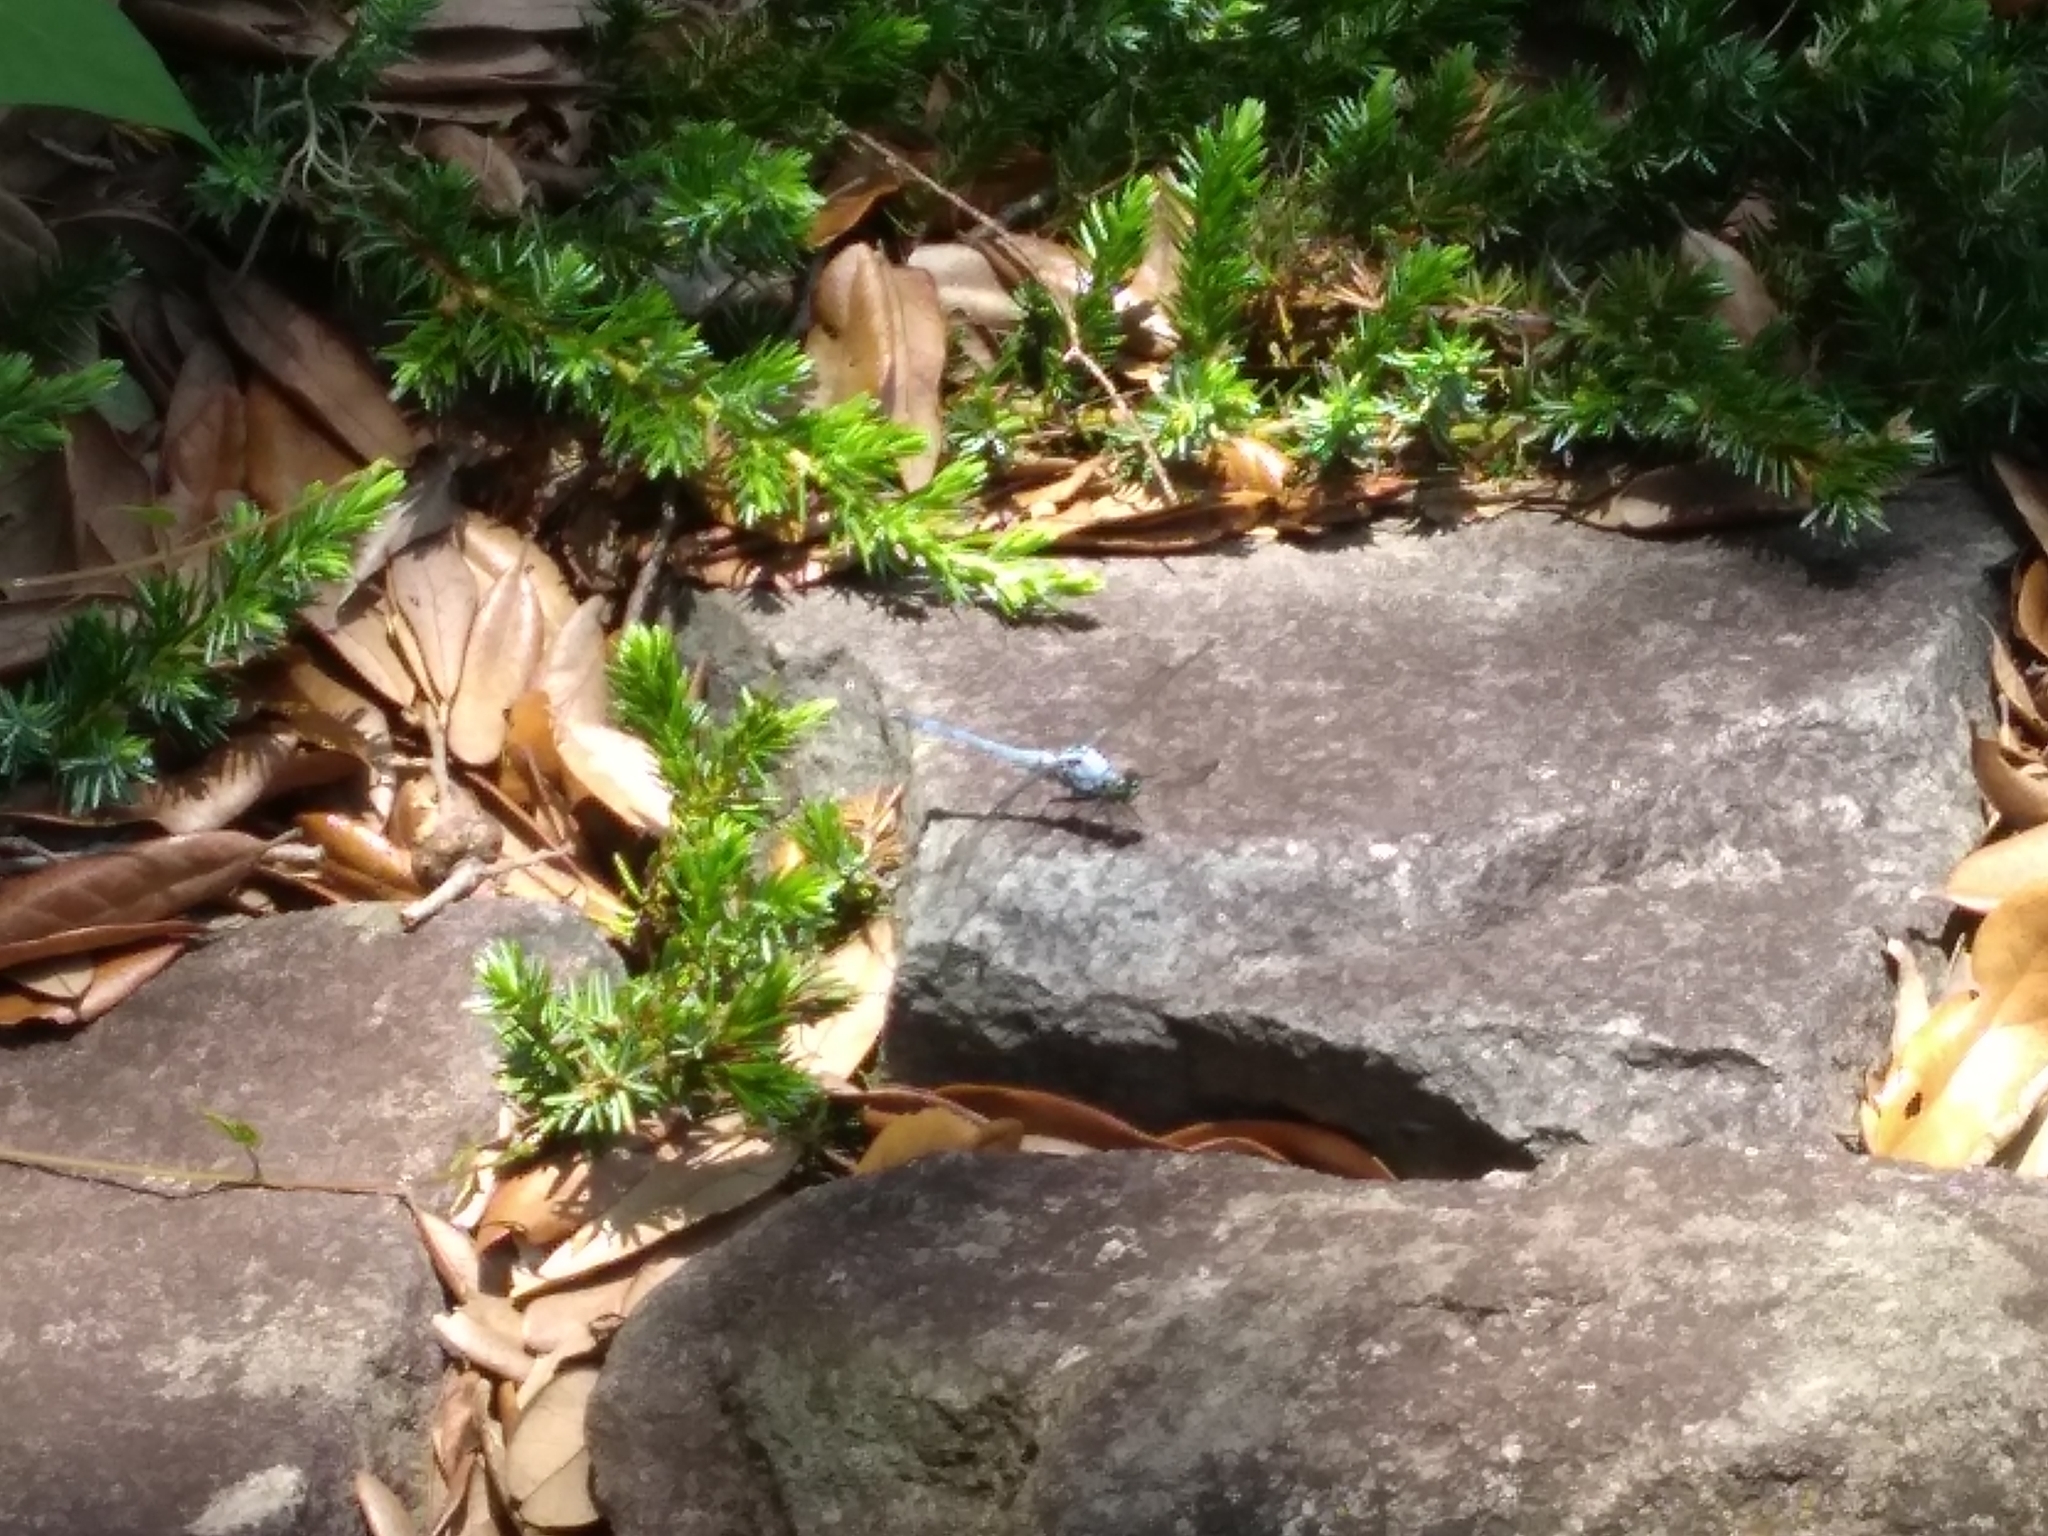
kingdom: Animalia
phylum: Arthropoda
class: Insecta
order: Odonata
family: Libellulidae
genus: Erythemis
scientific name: Erythemis simplicicollis
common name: Eastern pondhawk
